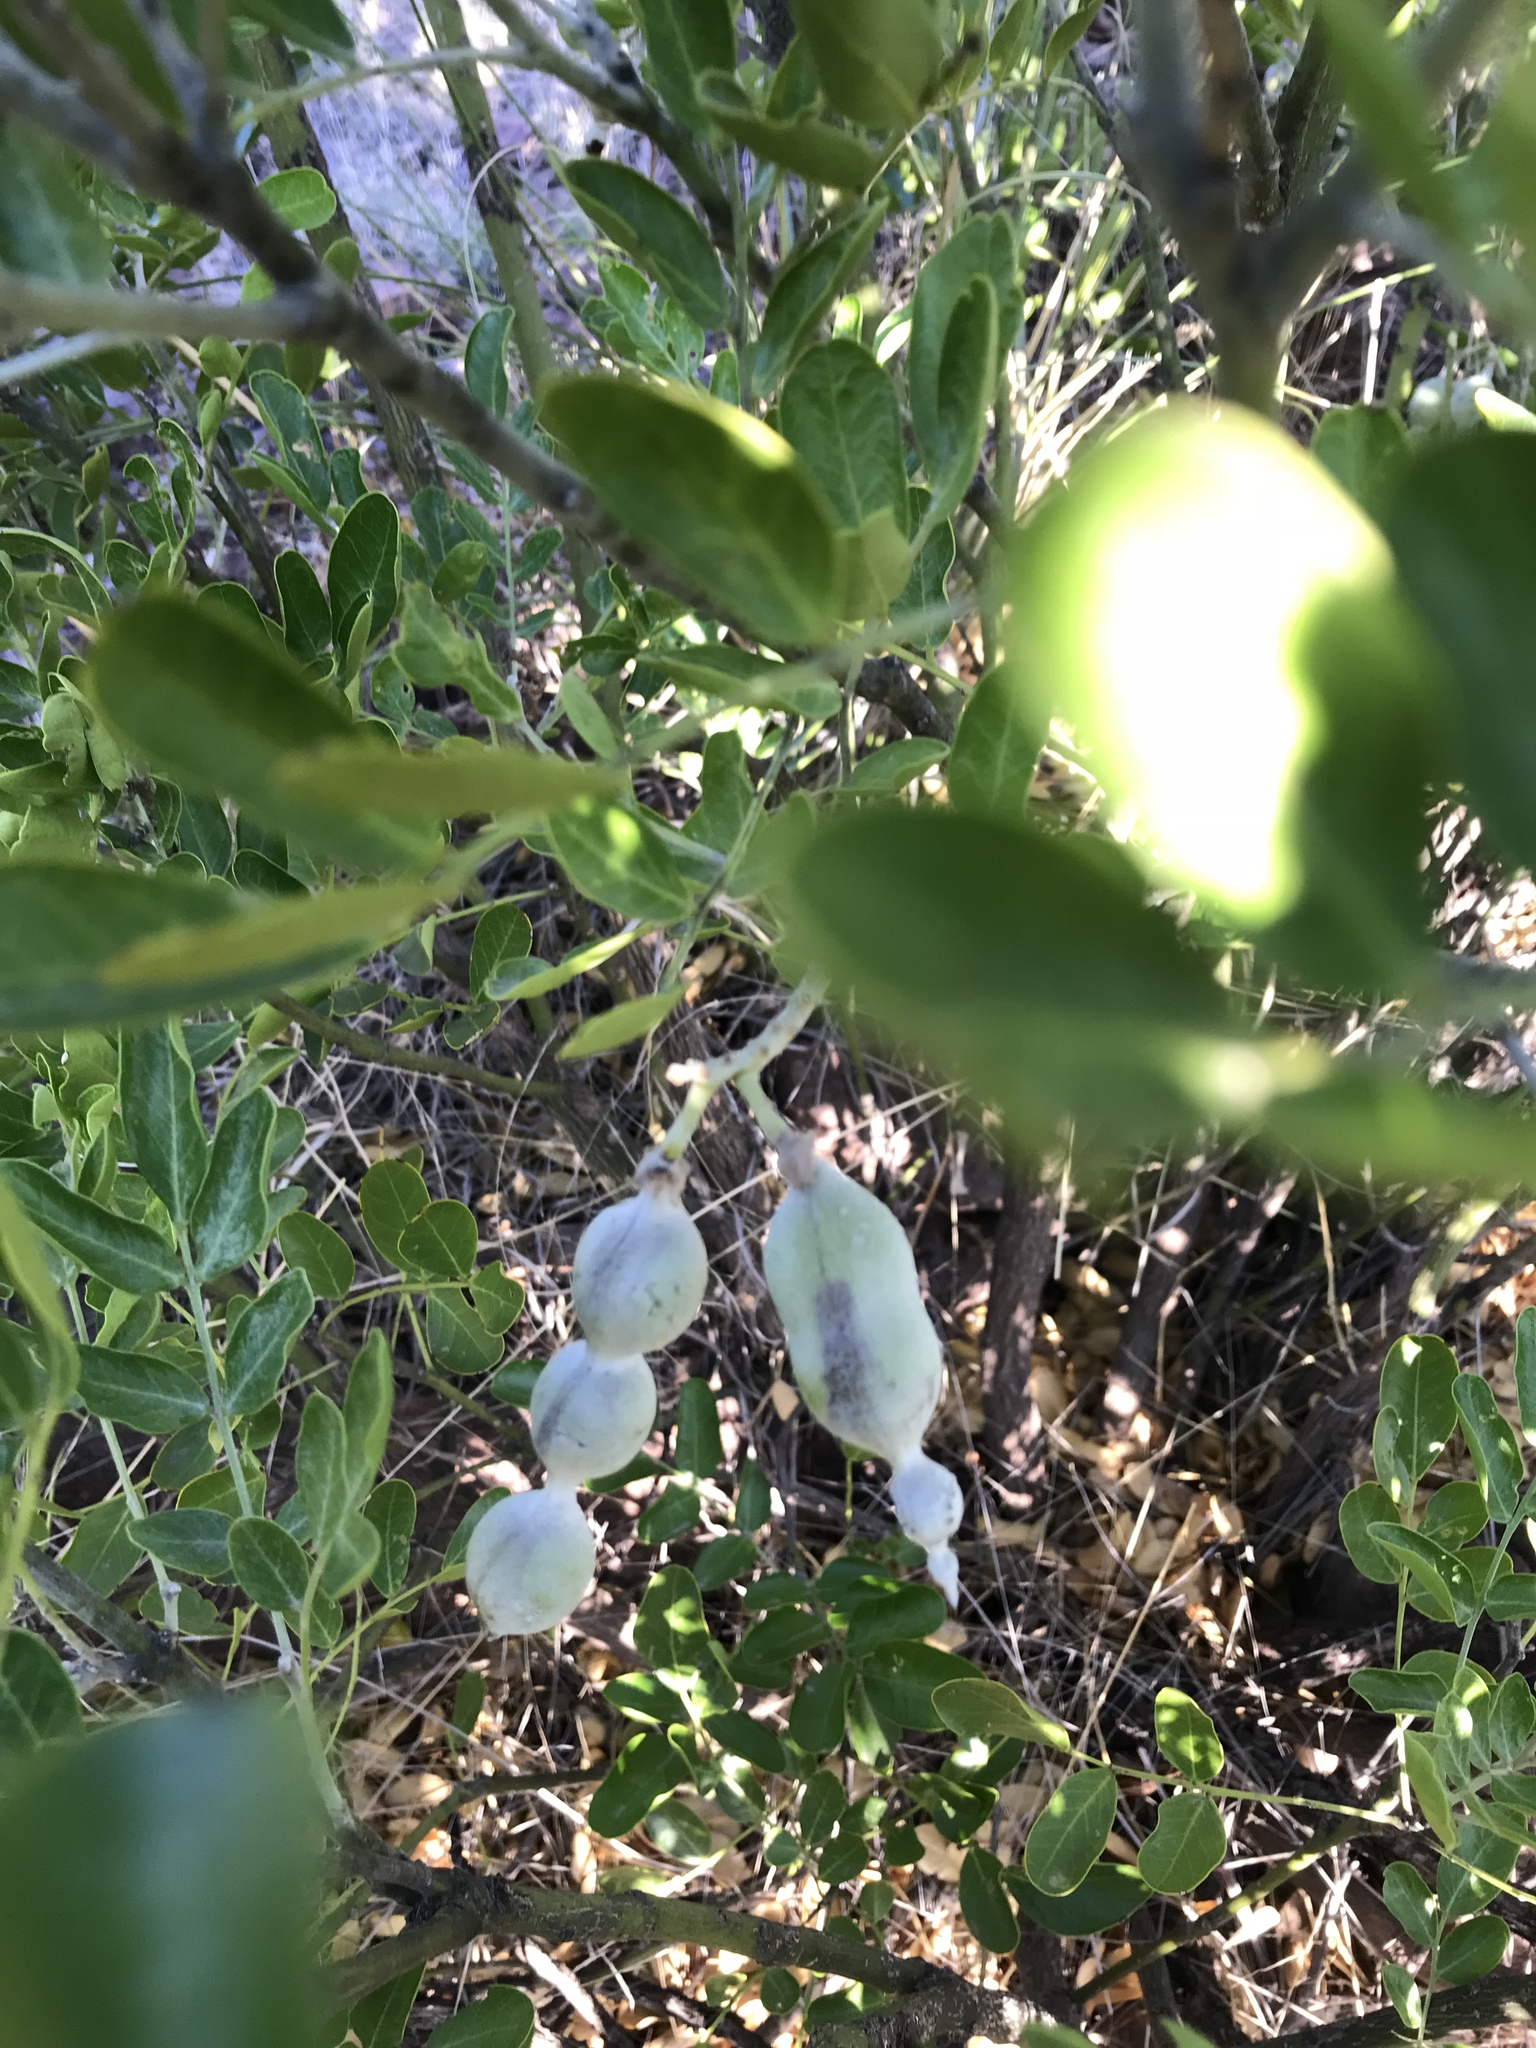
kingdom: Plantae
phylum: Tracheophyta
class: Magnoliopsida
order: Fabales
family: Fabaceae
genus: Dermatophyllum
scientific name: Dermatophyllum secundiflorum
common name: Texas-mountain-laurel
